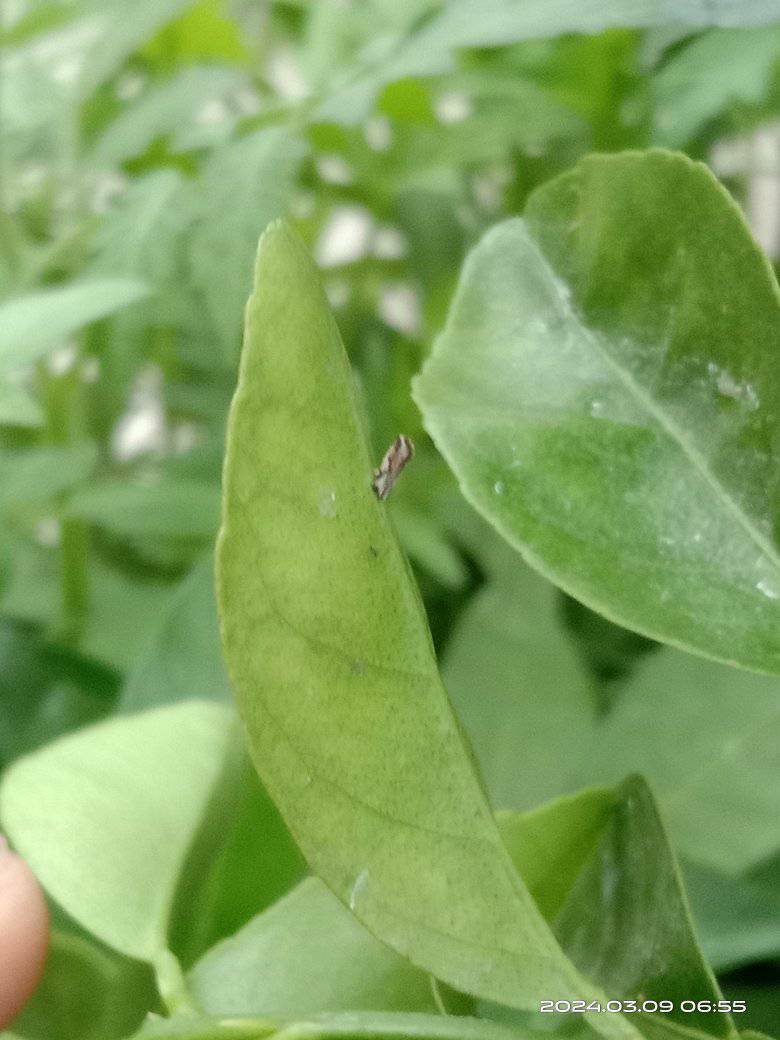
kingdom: Animalia
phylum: Arthropoda
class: Insecta
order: Hemiptera
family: Liviidae
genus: Diaphorina
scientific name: Diaphorina citri
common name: Asian citrus psyllid
